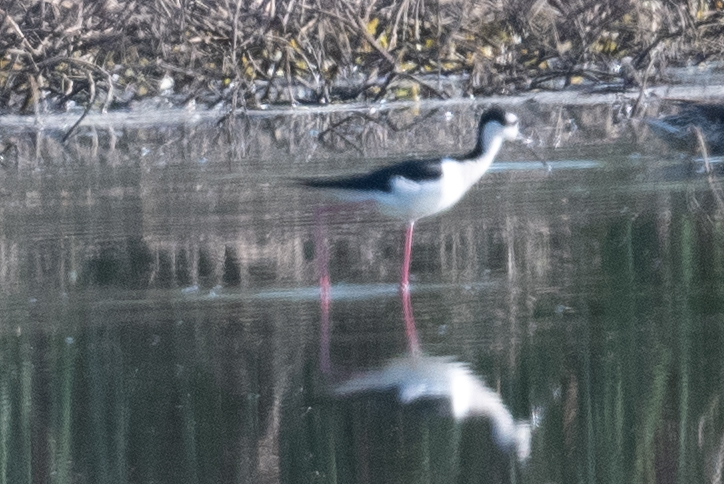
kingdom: Animalia
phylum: Chordata
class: Aves
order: Charadriiformes
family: Recurvirostridae
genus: Himantopus
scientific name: Himantopus mexicanus
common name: Black-necked stilt
